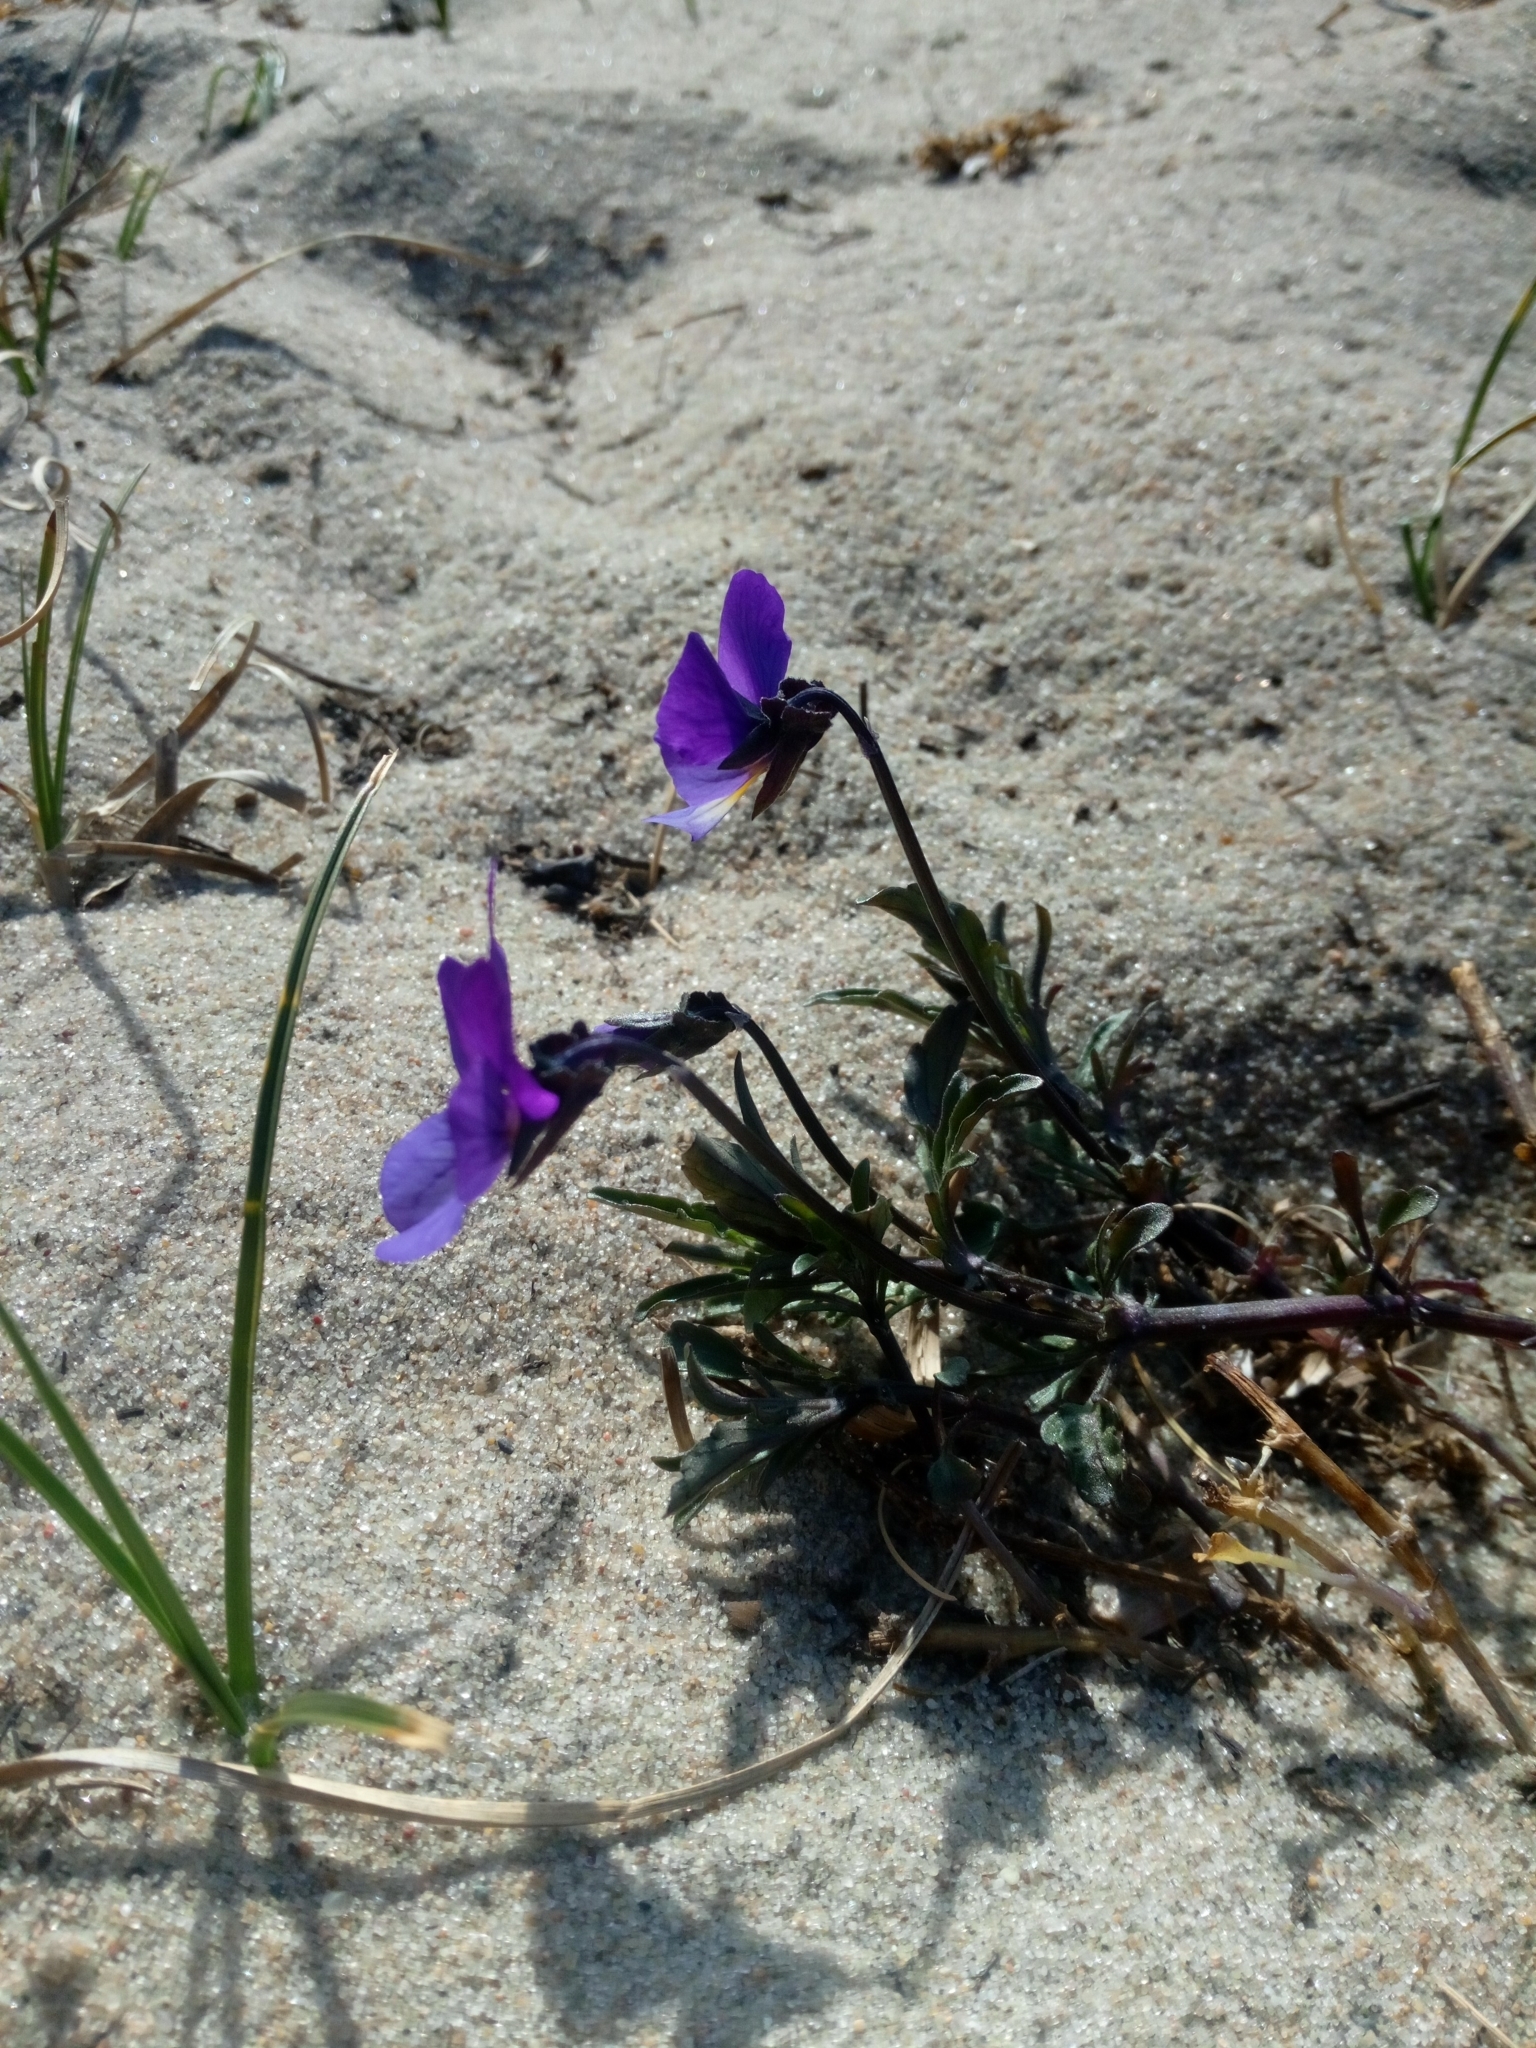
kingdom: Plantae
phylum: Tracheophyta
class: Magnoliopsida
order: Malpighiales
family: Violaceae
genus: Viola
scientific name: Viola tricolor
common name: Pansy
